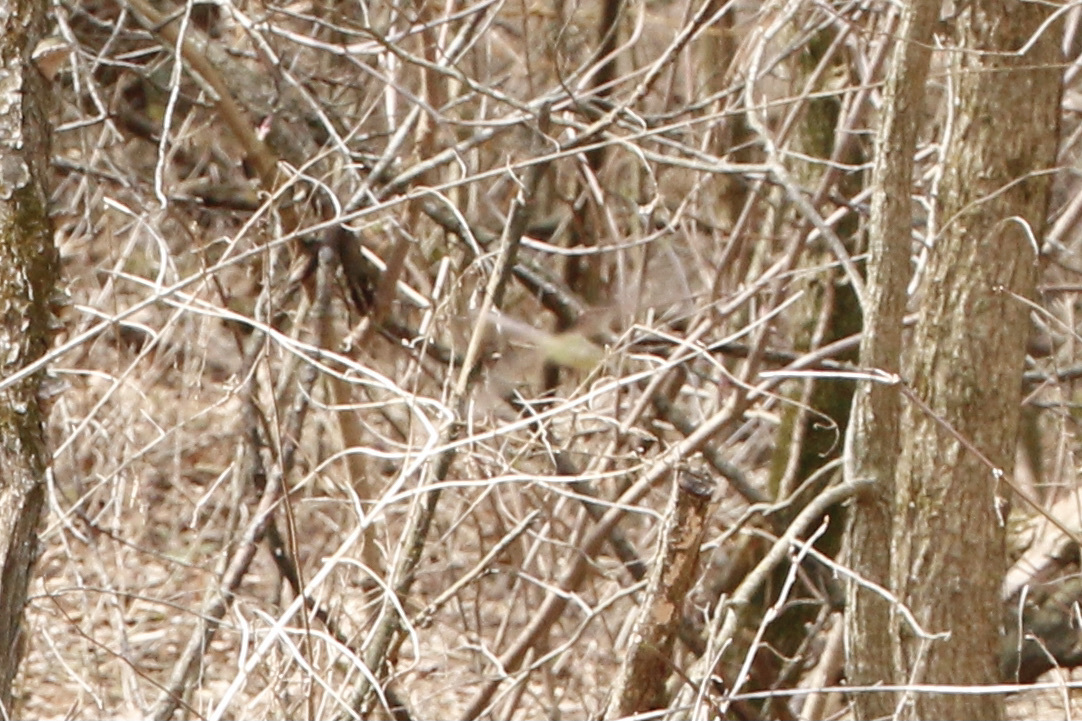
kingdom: Animalia
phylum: Arthropoda
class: Insecta
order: Odonata
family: Aeshnidae
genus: Anax
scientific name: Anax junius
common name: Common green darner
